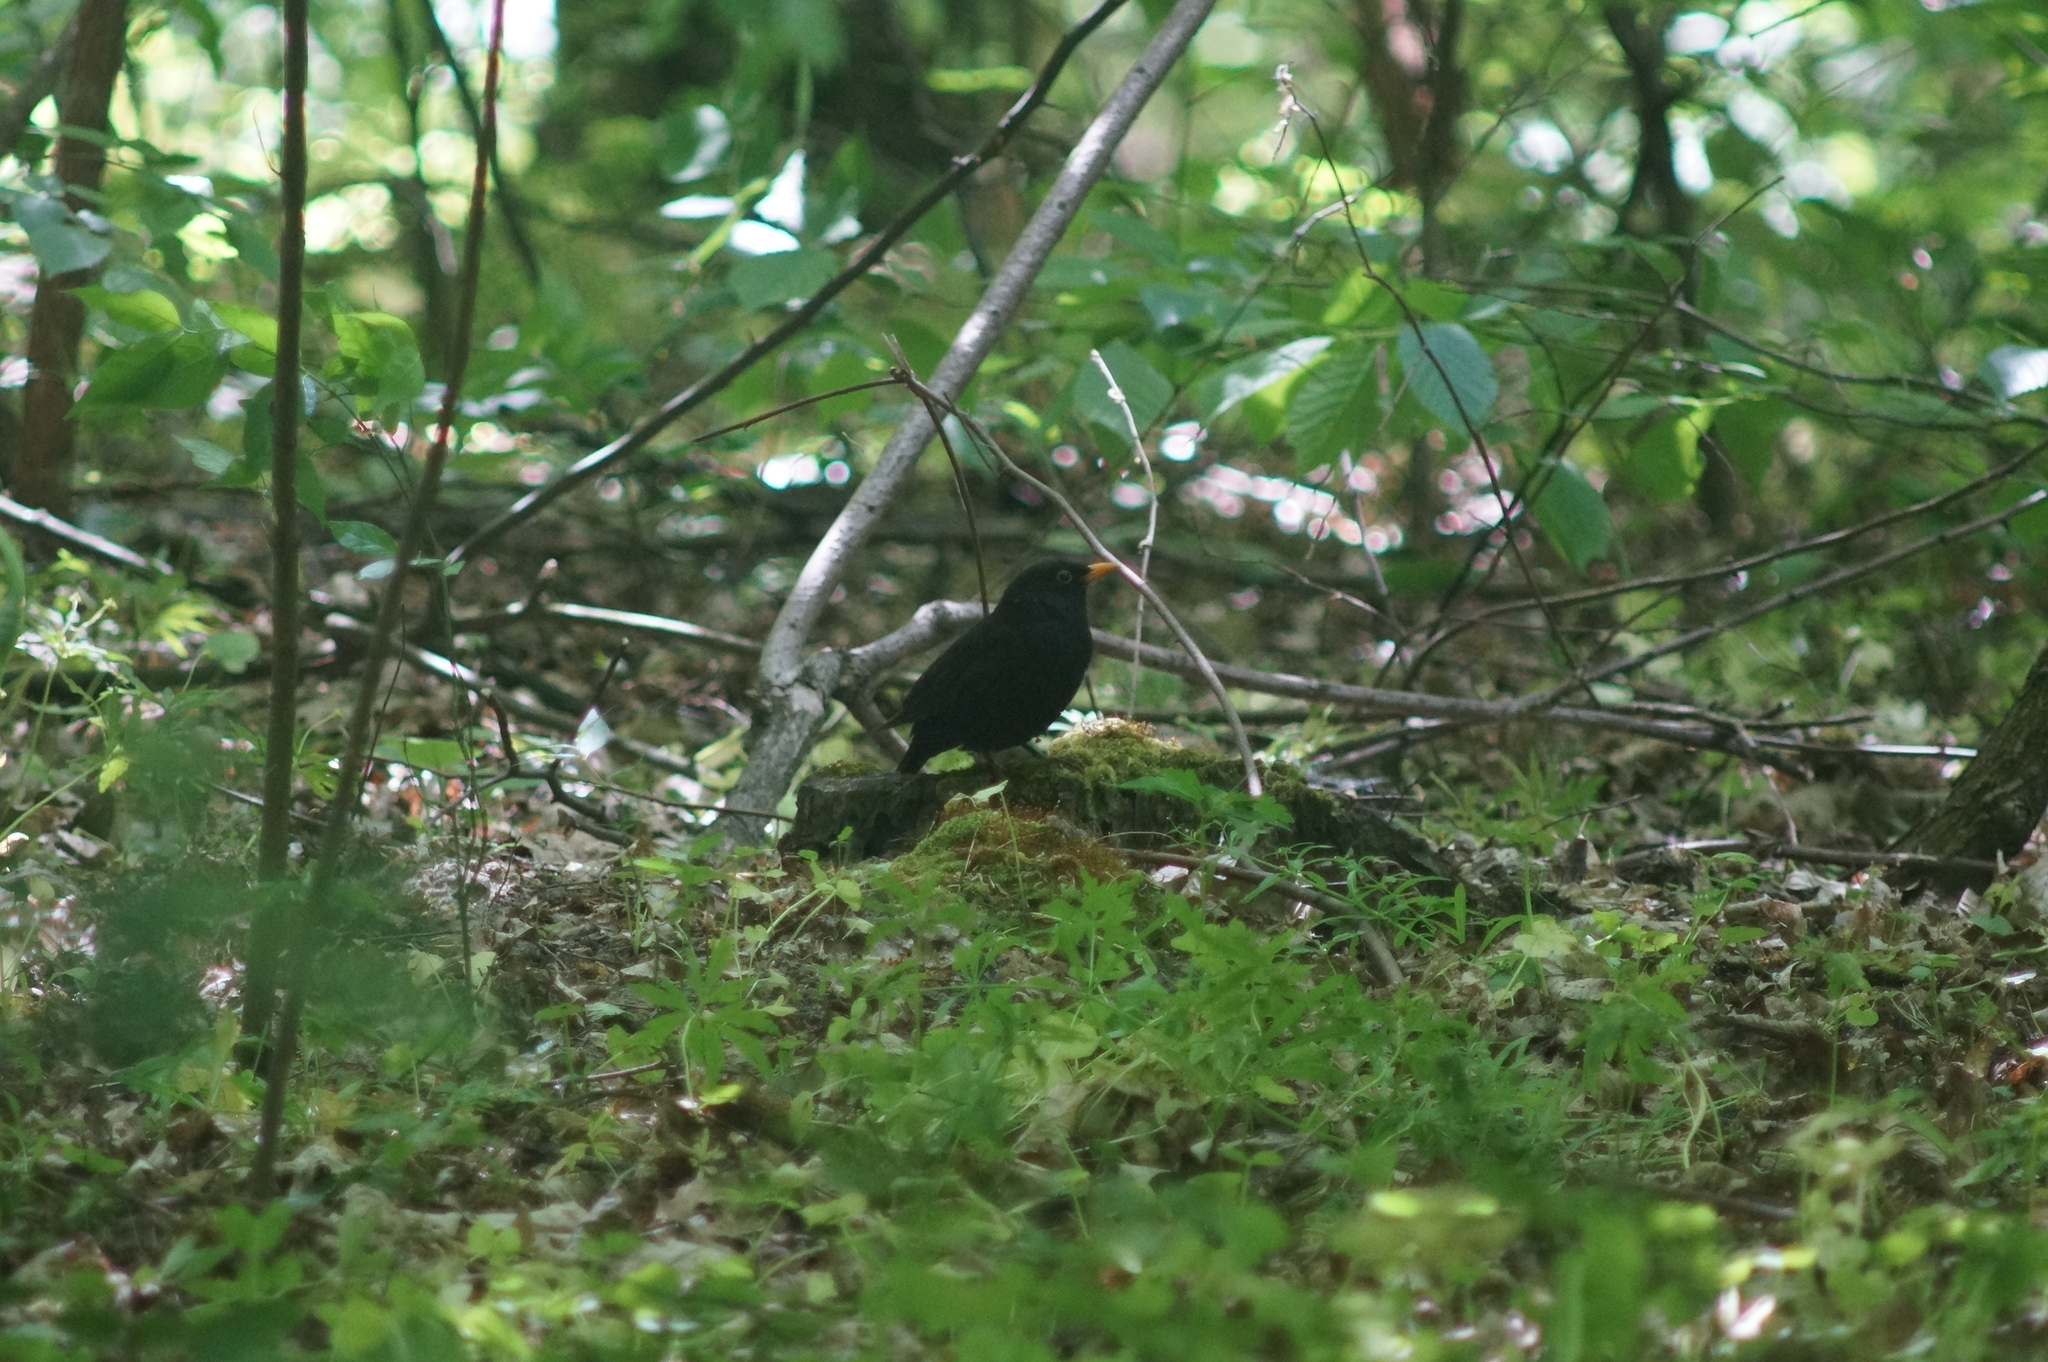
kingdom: Animalia
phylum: Chordata
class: Aves
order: Passeriformes
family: Turdidae
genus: Turdus
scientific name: Turdus merula
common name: Common blackbird
